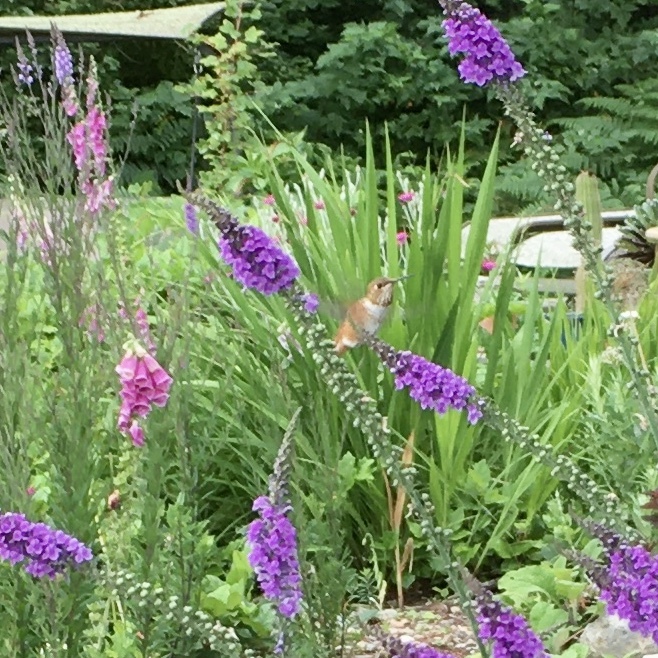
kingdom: Animalia
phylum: Chordata
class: Aves
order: Apodiformes
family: Trochilidae
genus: Selasphorus
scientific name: Selasphorus rufus
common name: Rufous hummingbird
